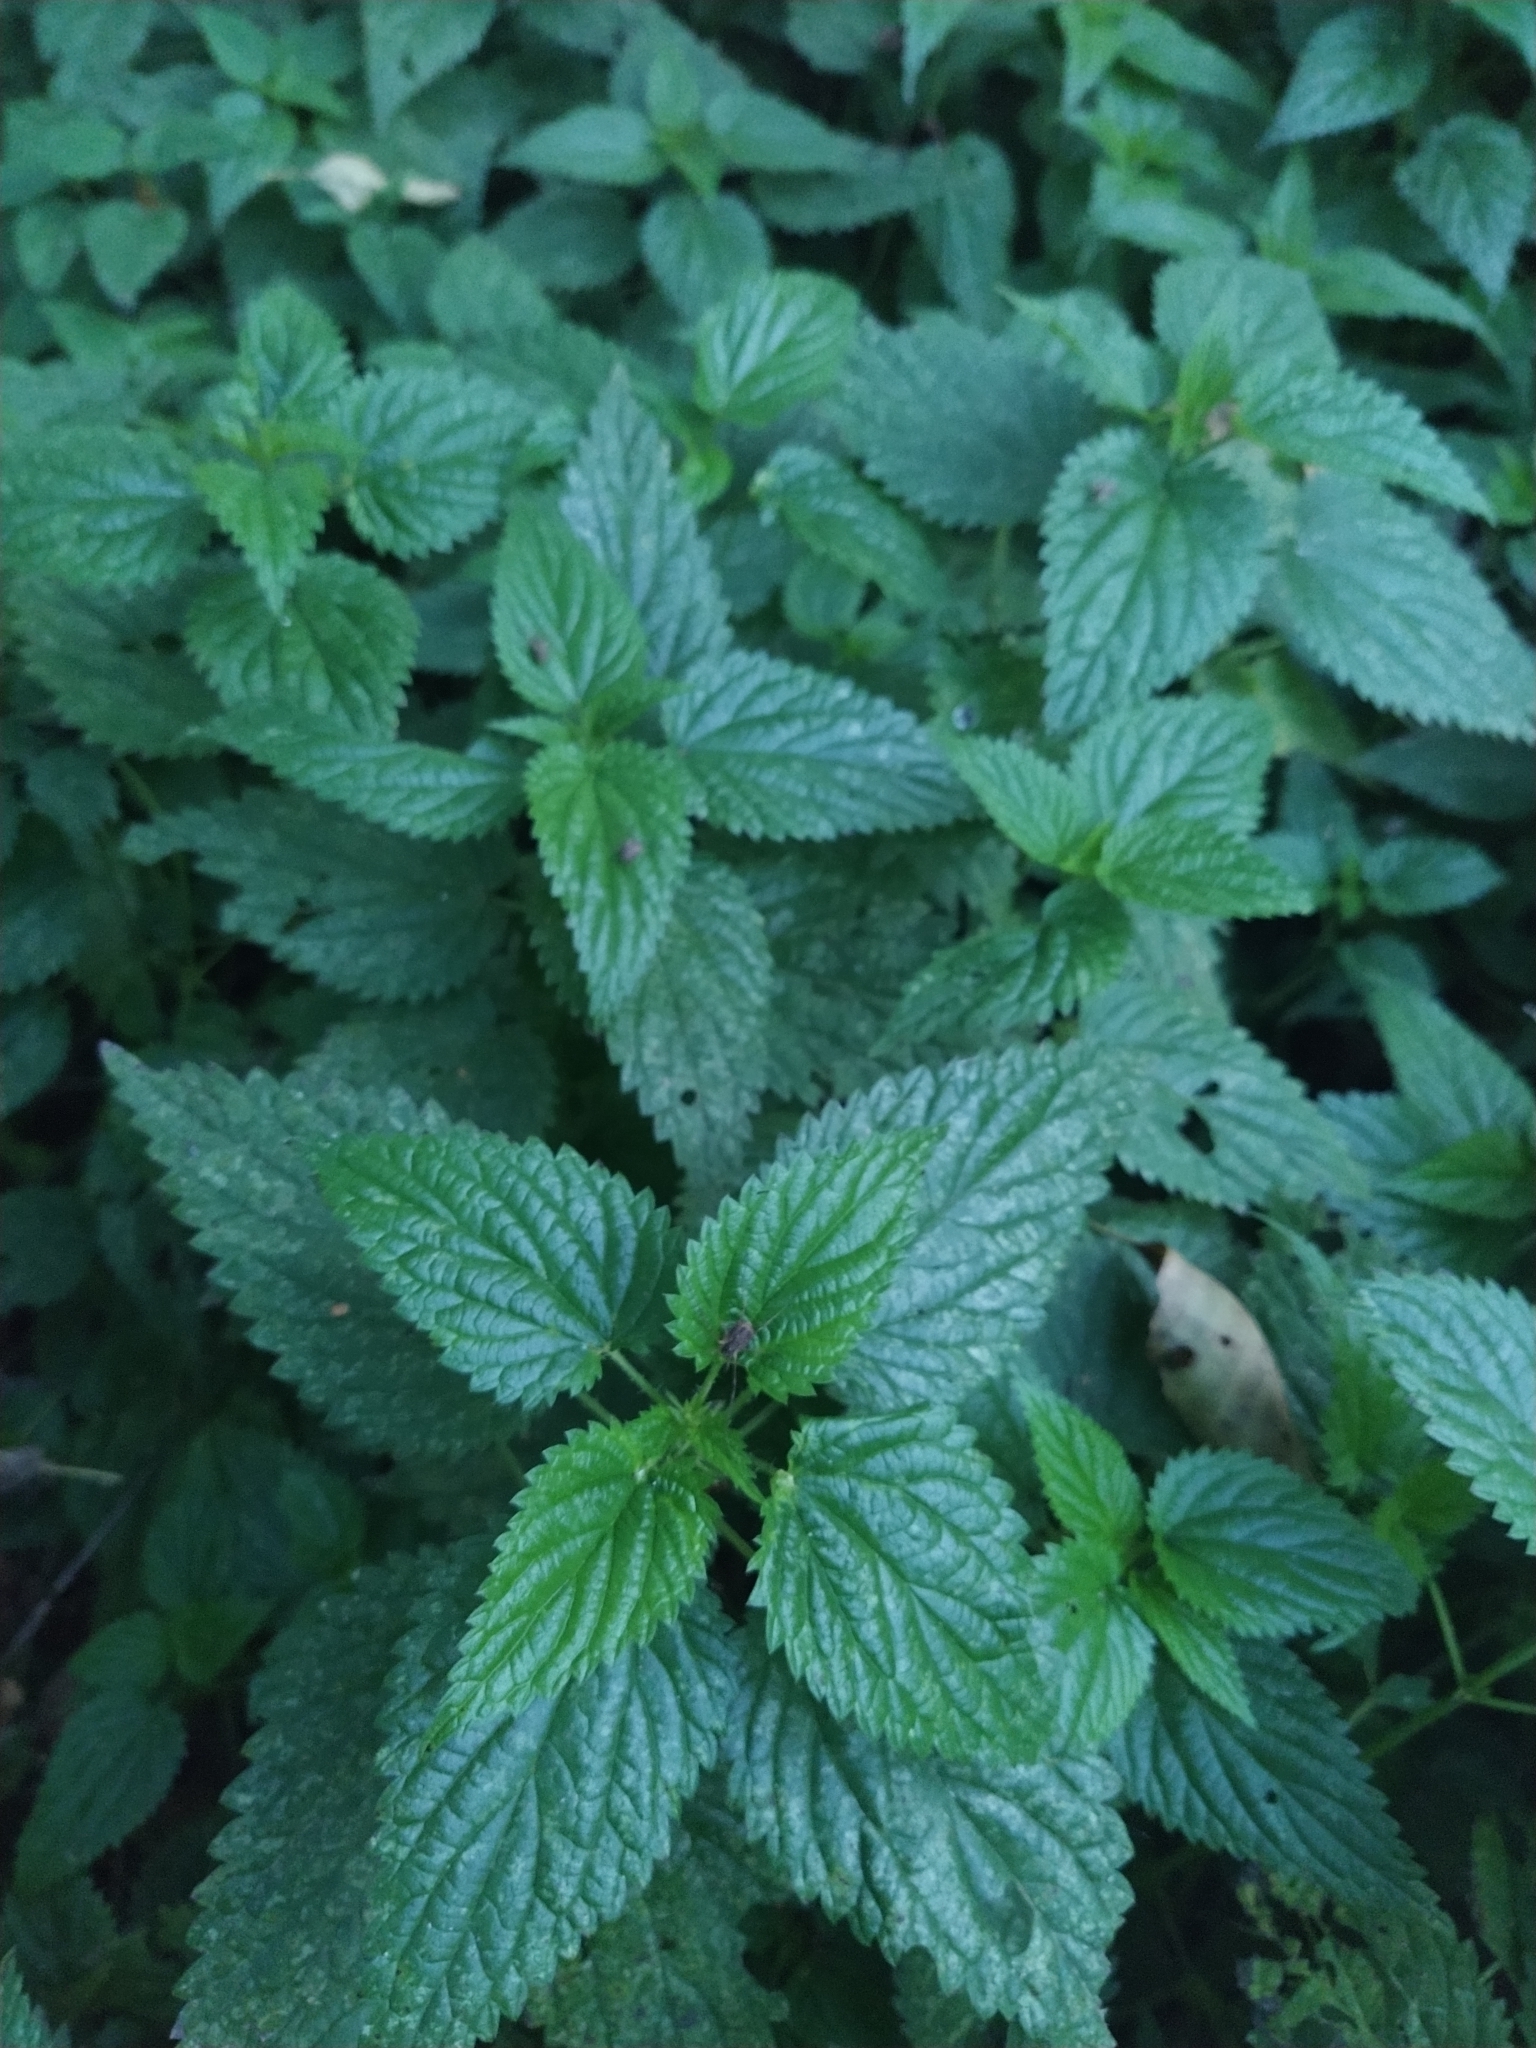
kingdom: Plantae
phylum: Tracheophyta
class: Magnoliopsida
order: Rosales
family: Urticaceae
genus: Urtica
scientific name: Urtica dioica
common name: Common nettle
